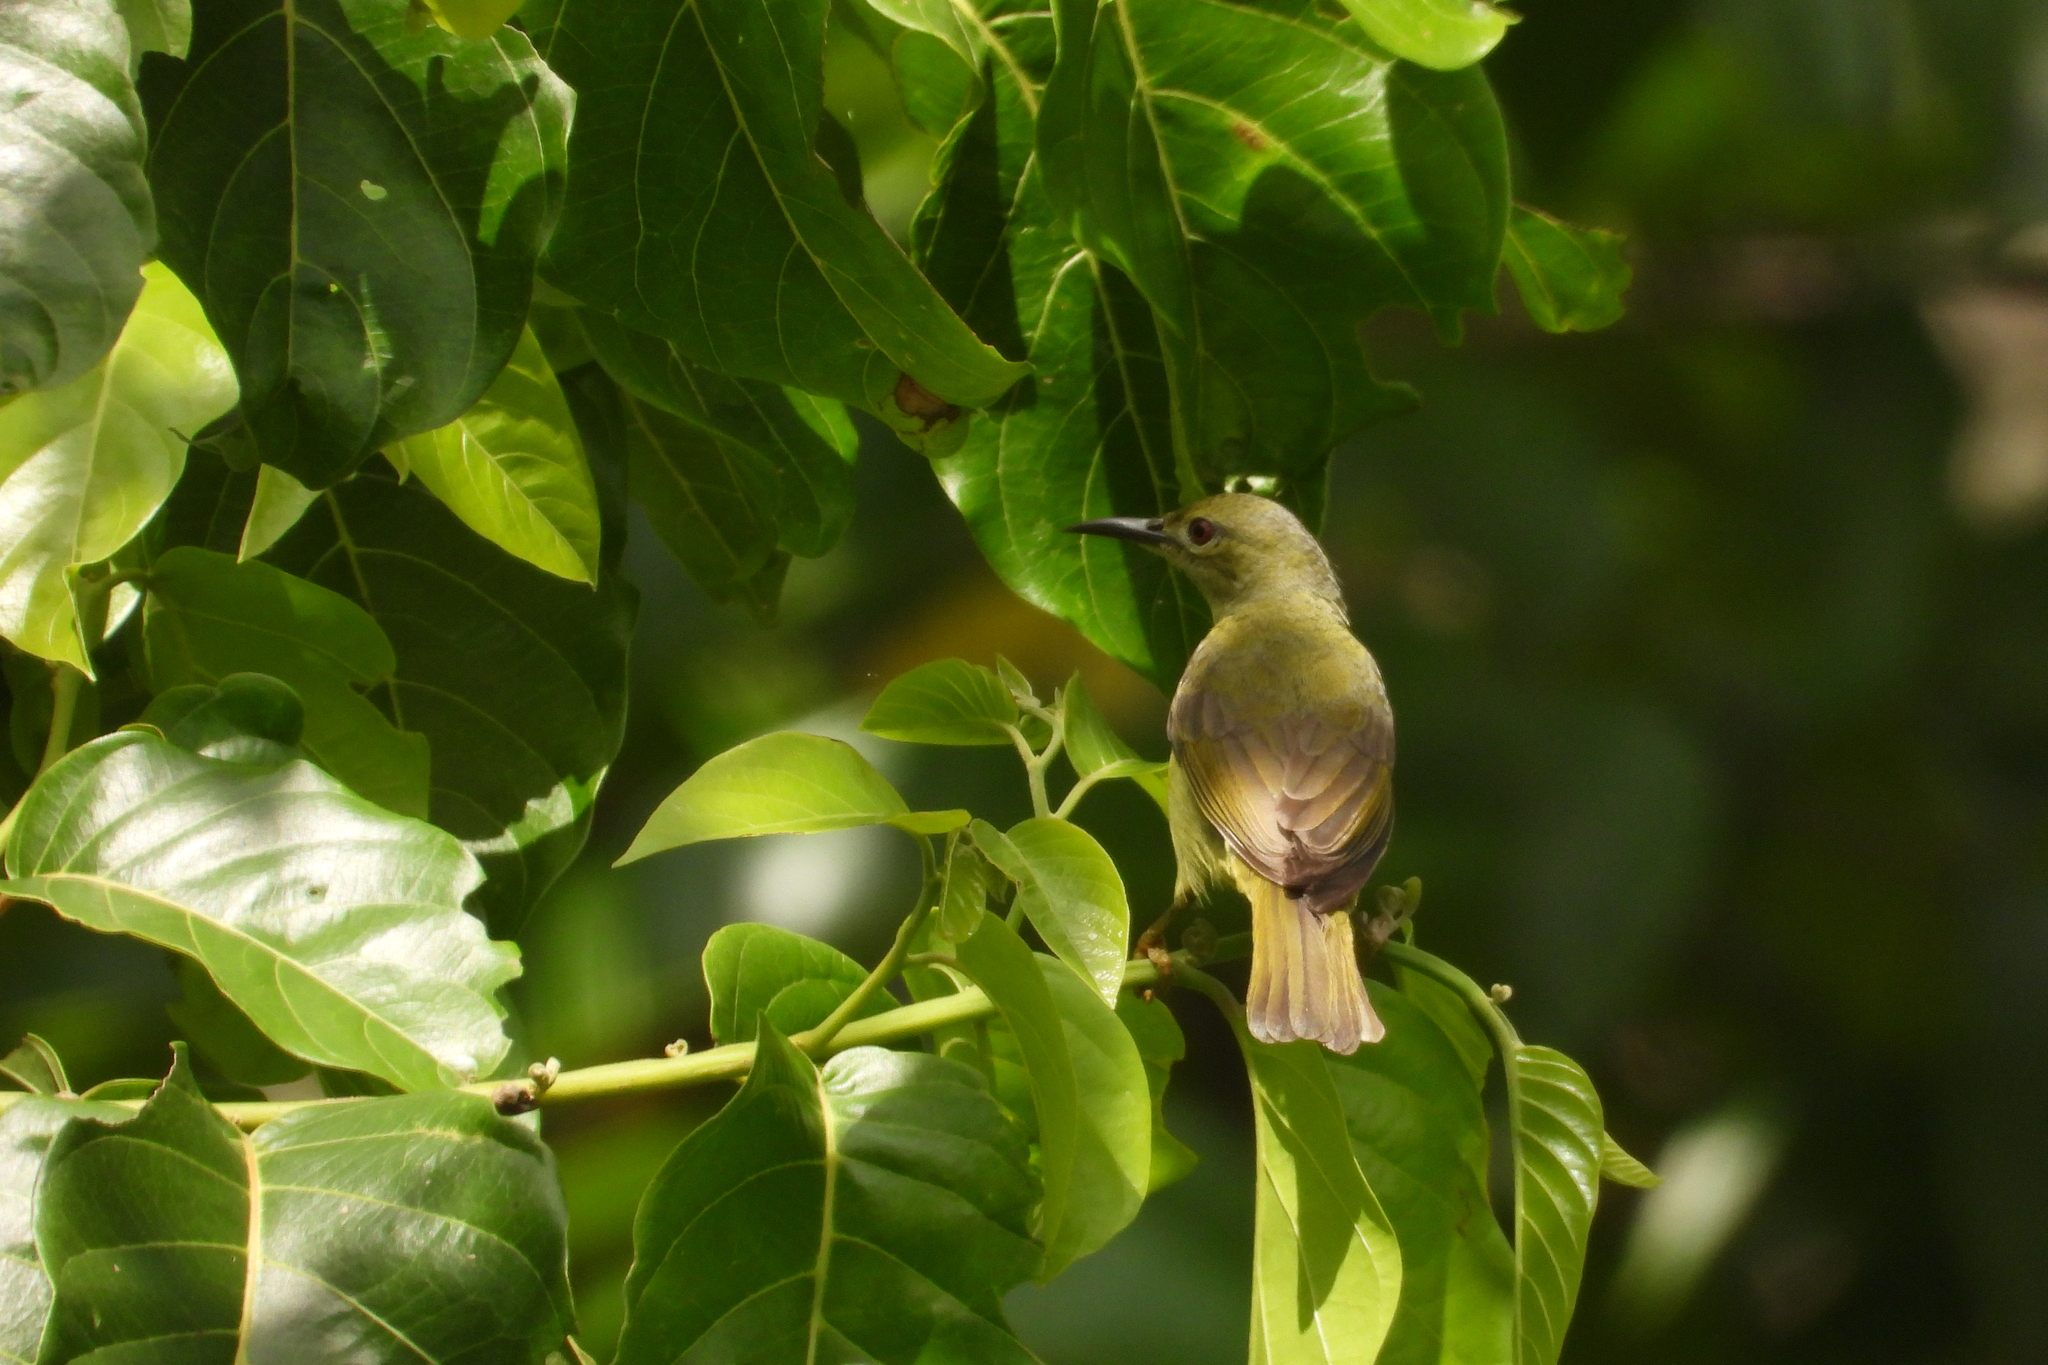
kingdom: Animalia
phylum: Chordata
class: Aves
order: Passeriformes
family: Nectariniidae
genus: Anthreptes
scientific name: Anthreptes malacensis
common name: Brown-throated sunbird
